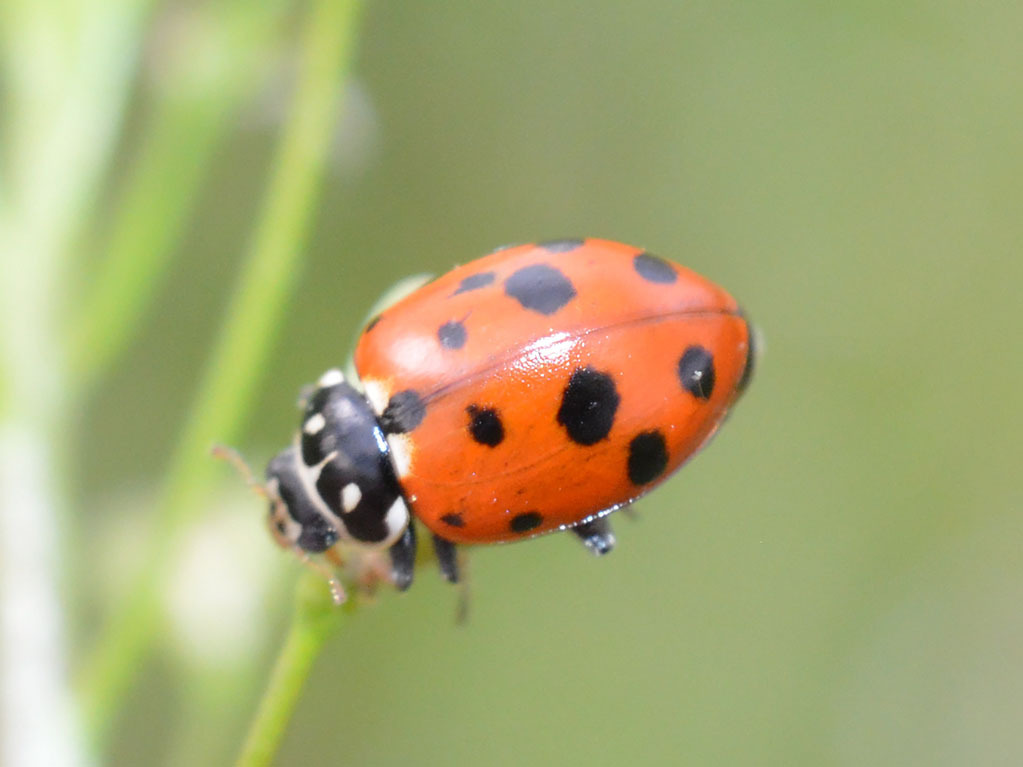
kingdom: Animalia
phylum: Arthropoda
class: Insecta
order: Coleoptera
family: Coccinellidae
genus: Hippodamia
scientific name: Hippodamia variegata
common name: Ladybird beetle
